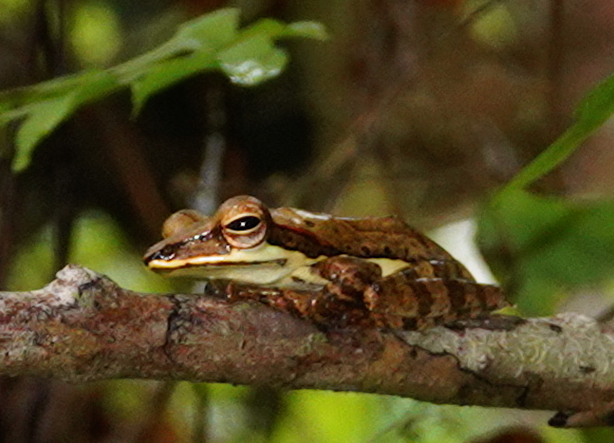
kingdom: Animalia
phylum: Chordata
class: Amphibia
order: Anura
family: Rhacophoridae
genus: Taruga
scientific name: Taruga fastigo
